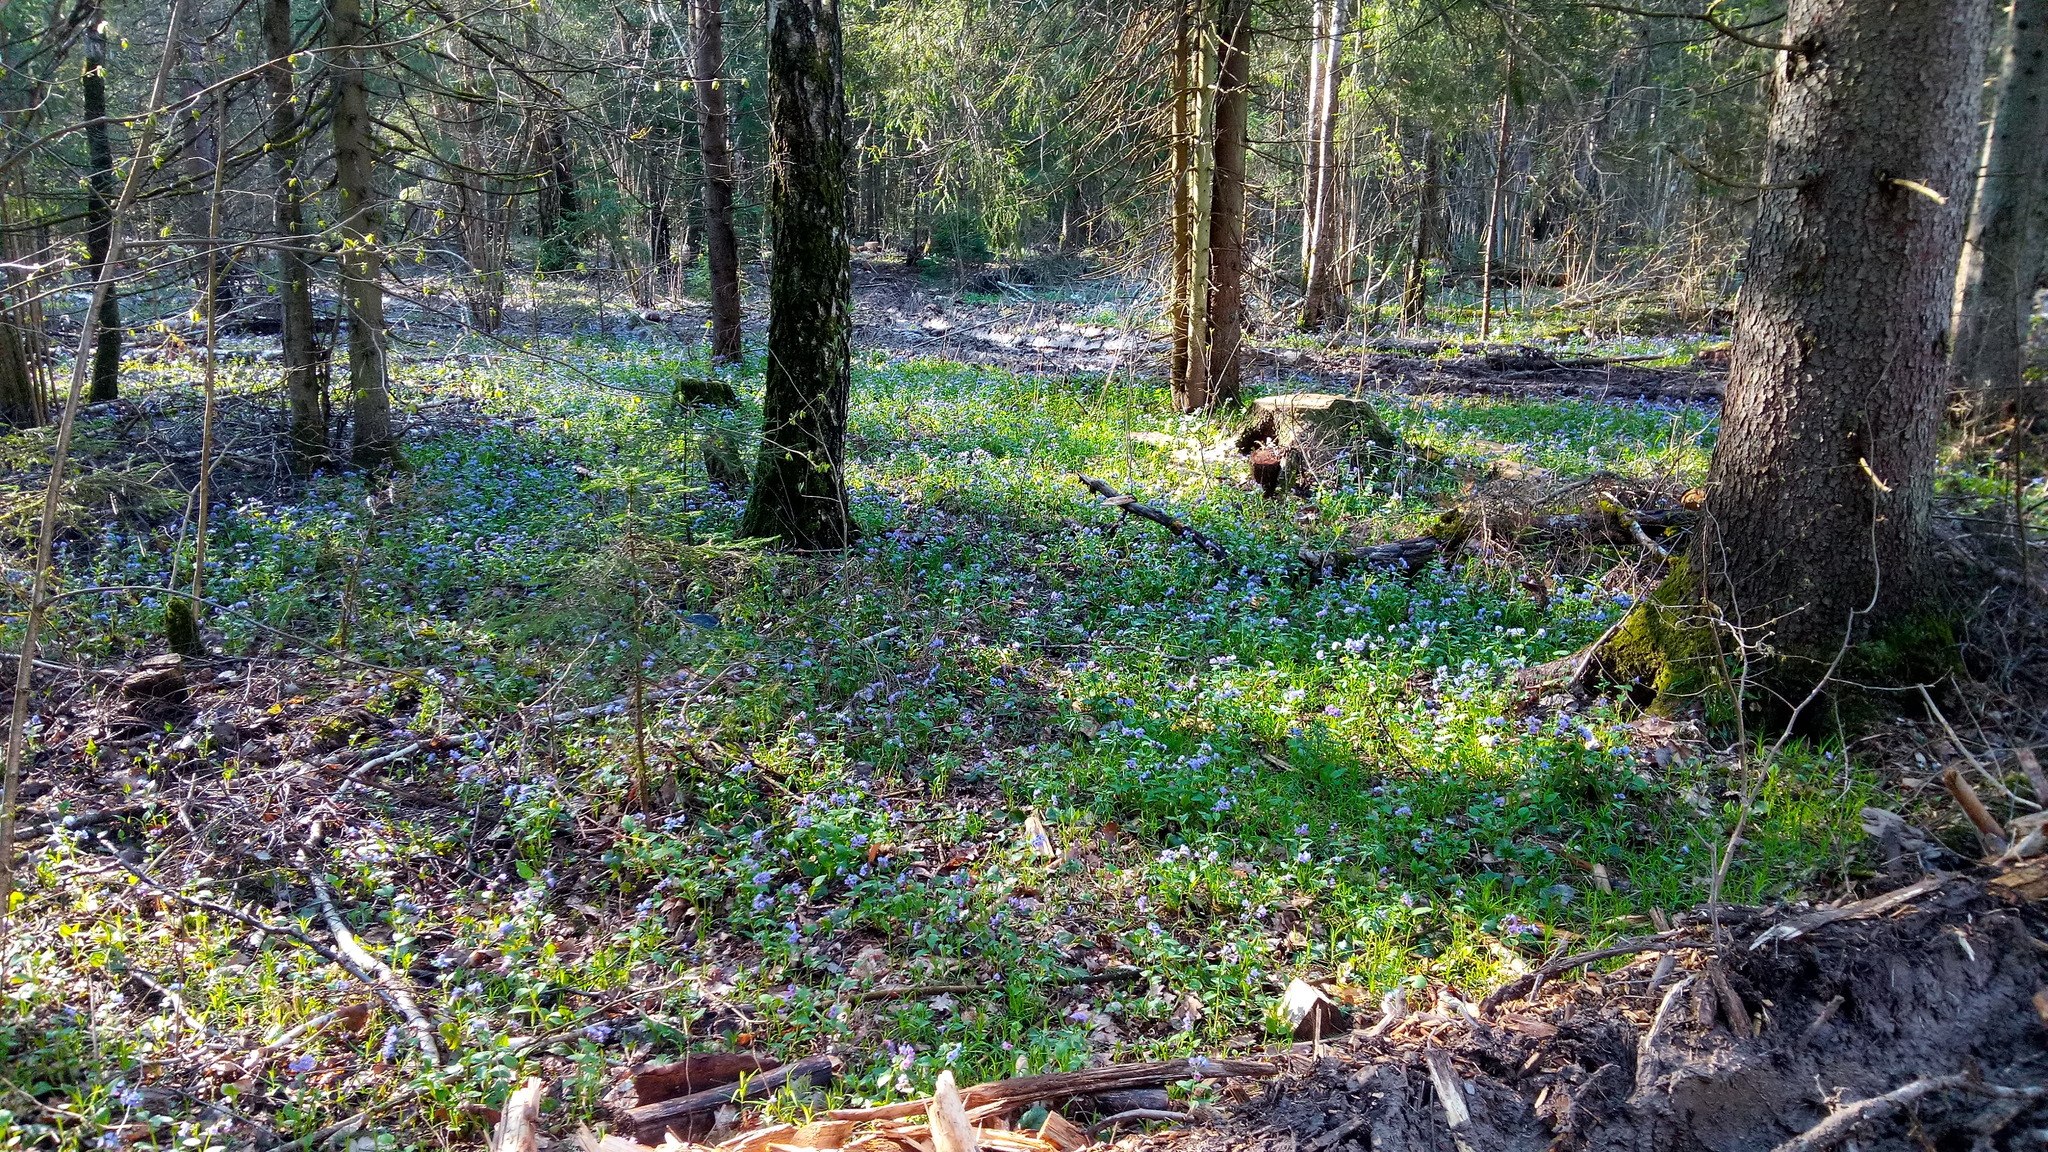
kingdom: Plantae
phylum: Tracheophyta
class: Magnoliopsida
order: Boraginales
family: Boraginaceae
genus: Pulmonaria
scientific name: Pulmonaria obscura
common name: Suffolk lungwort
